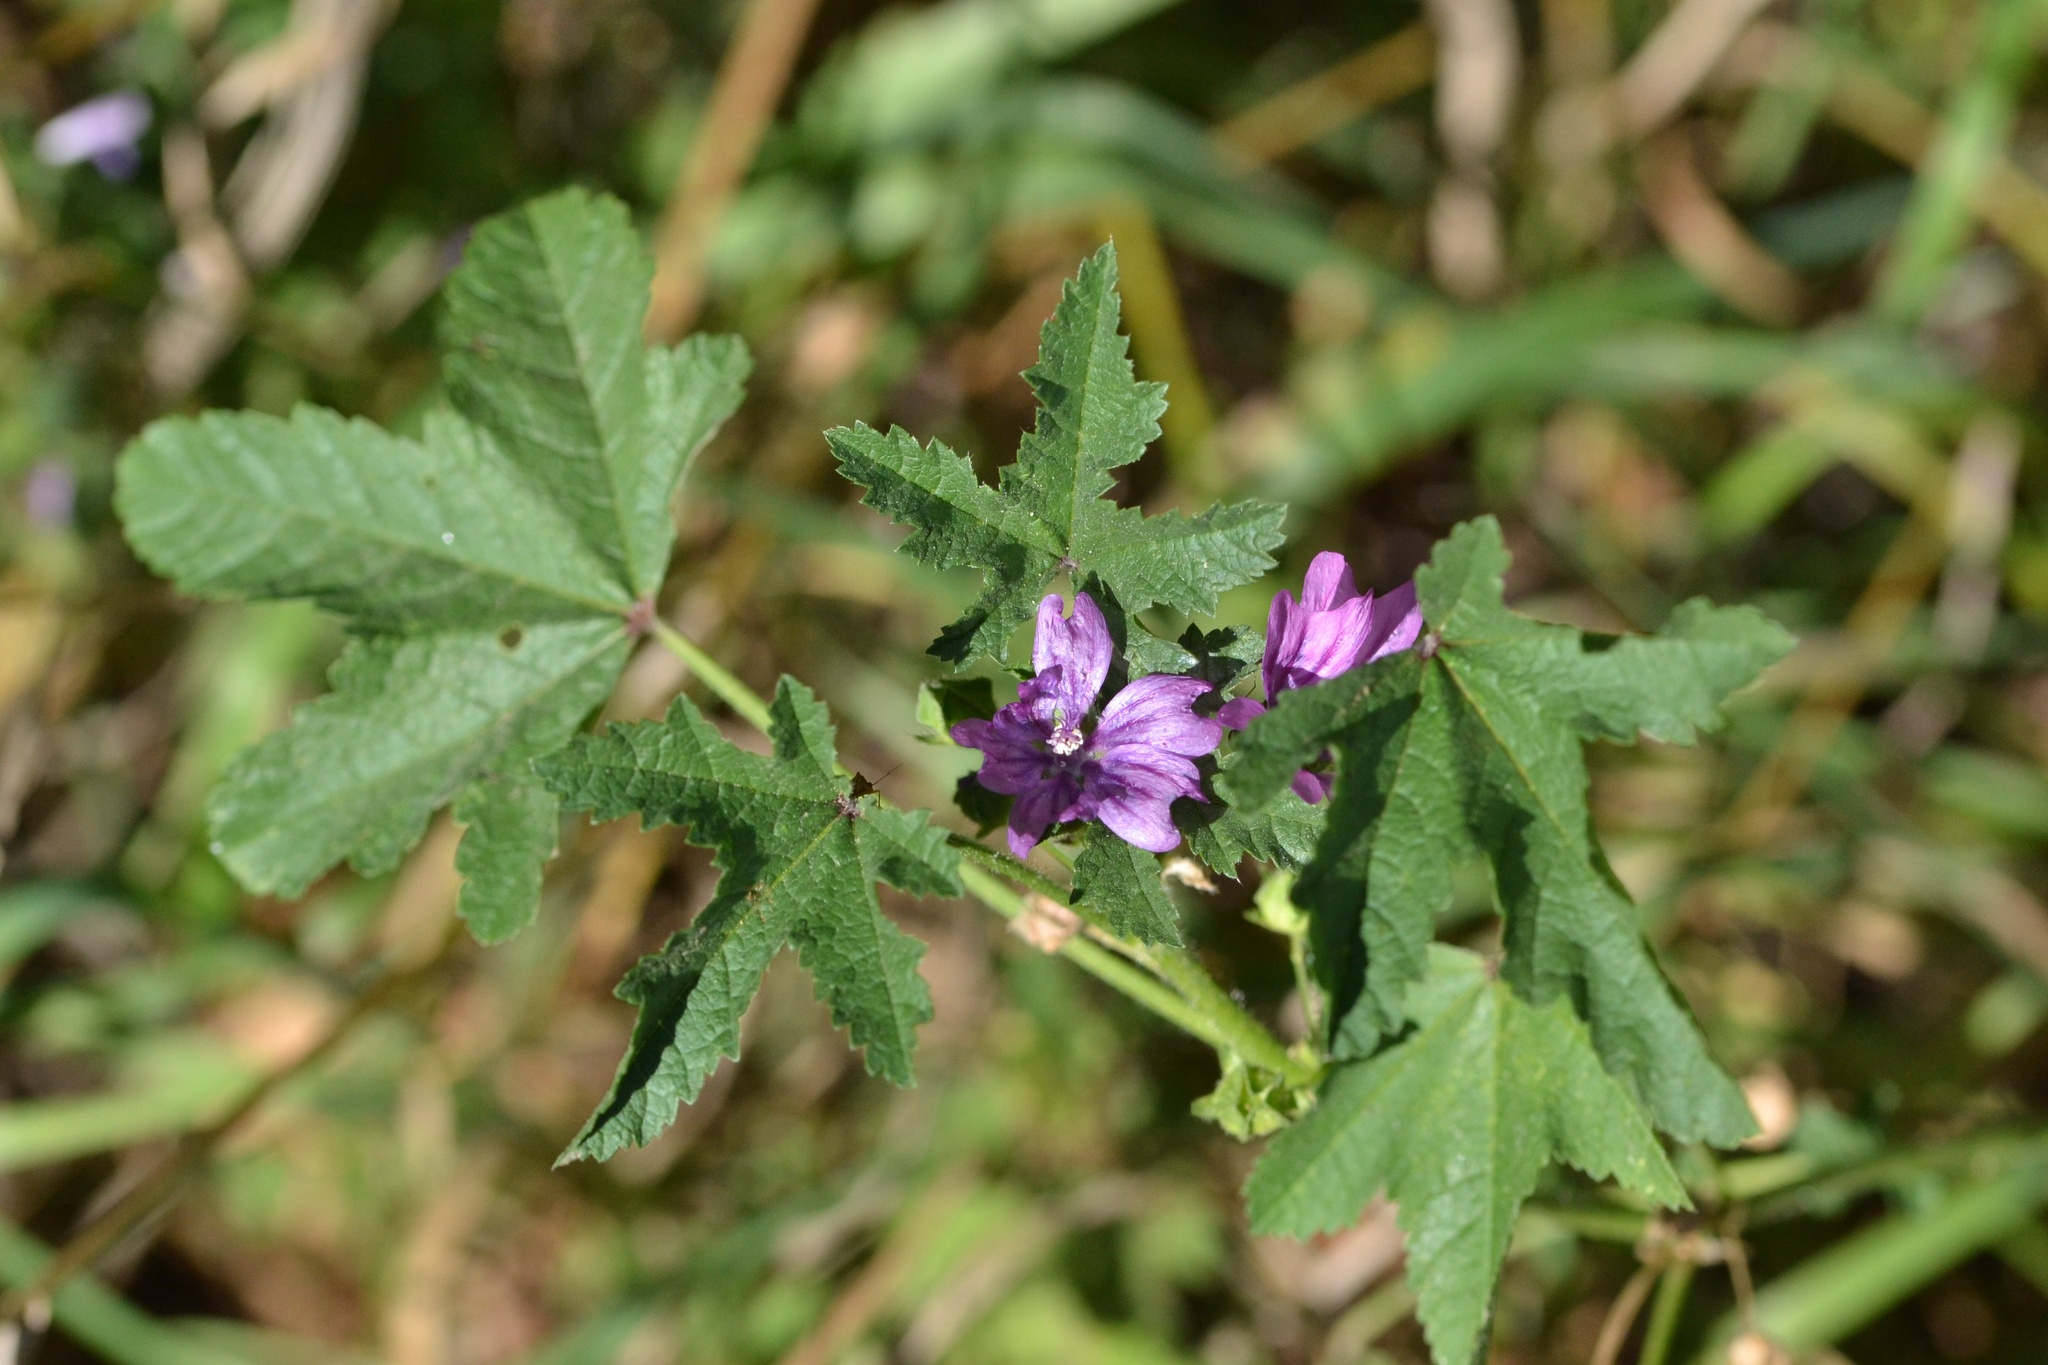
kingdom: Plantae
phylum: Tracheophyta
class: Magnoliopsida
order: Malvales
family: Malvaceae
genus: Malva
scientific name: Malva sylvestris
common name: Common mallow
